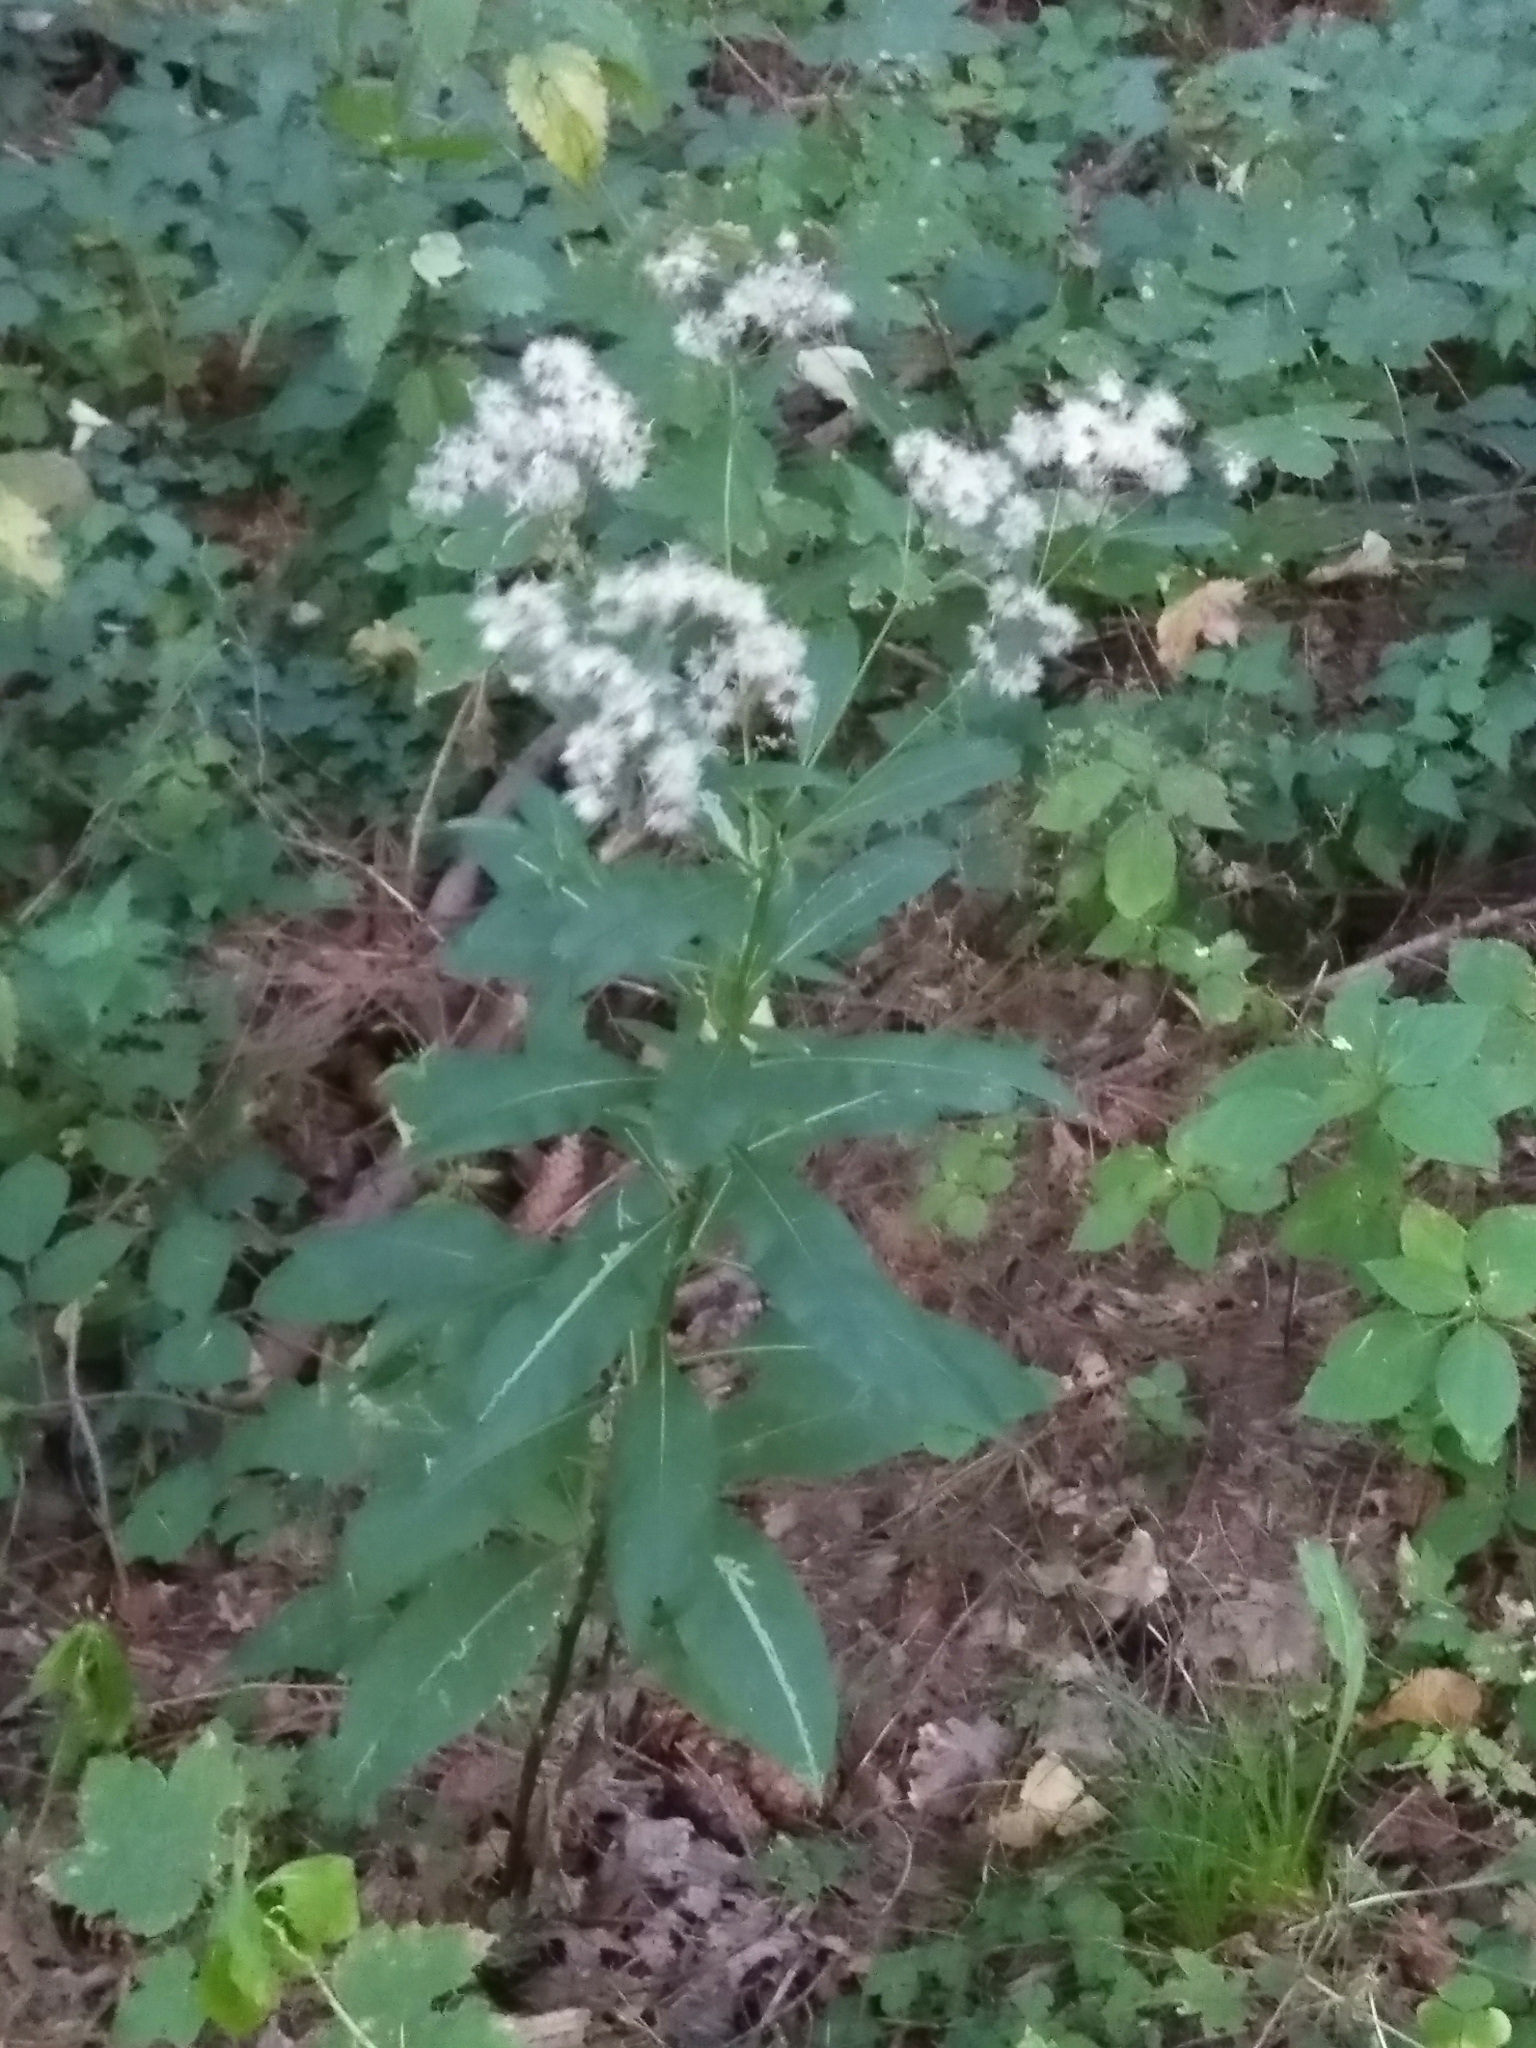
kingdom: Plantae
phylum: Tracheophyta
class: Magnoliopsida
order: Asterales
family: Asteraceae
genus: Senecio
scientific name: Senecio ovatus
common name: Wood ragwort
